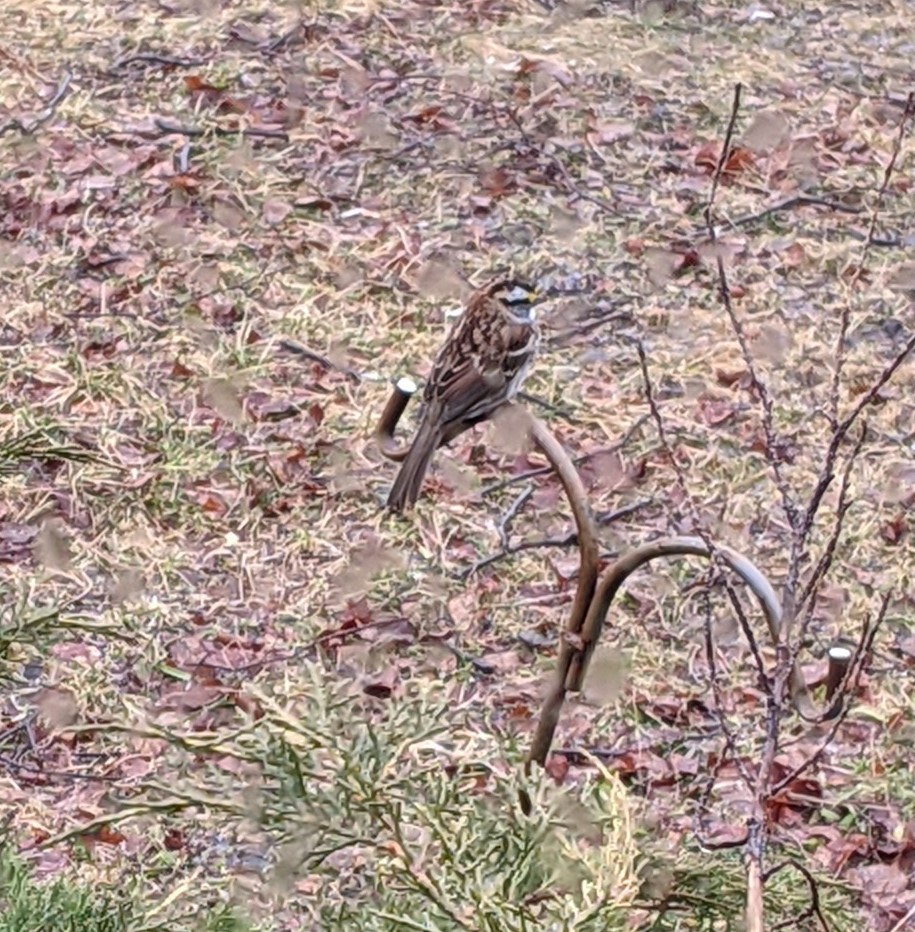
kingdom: Animalia
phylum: Chordata
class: Aves
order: Passeriformes
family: Passerellidae
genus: Zonotrichia
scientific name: Zonotrichia albicollis
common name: White-throated sparrow
